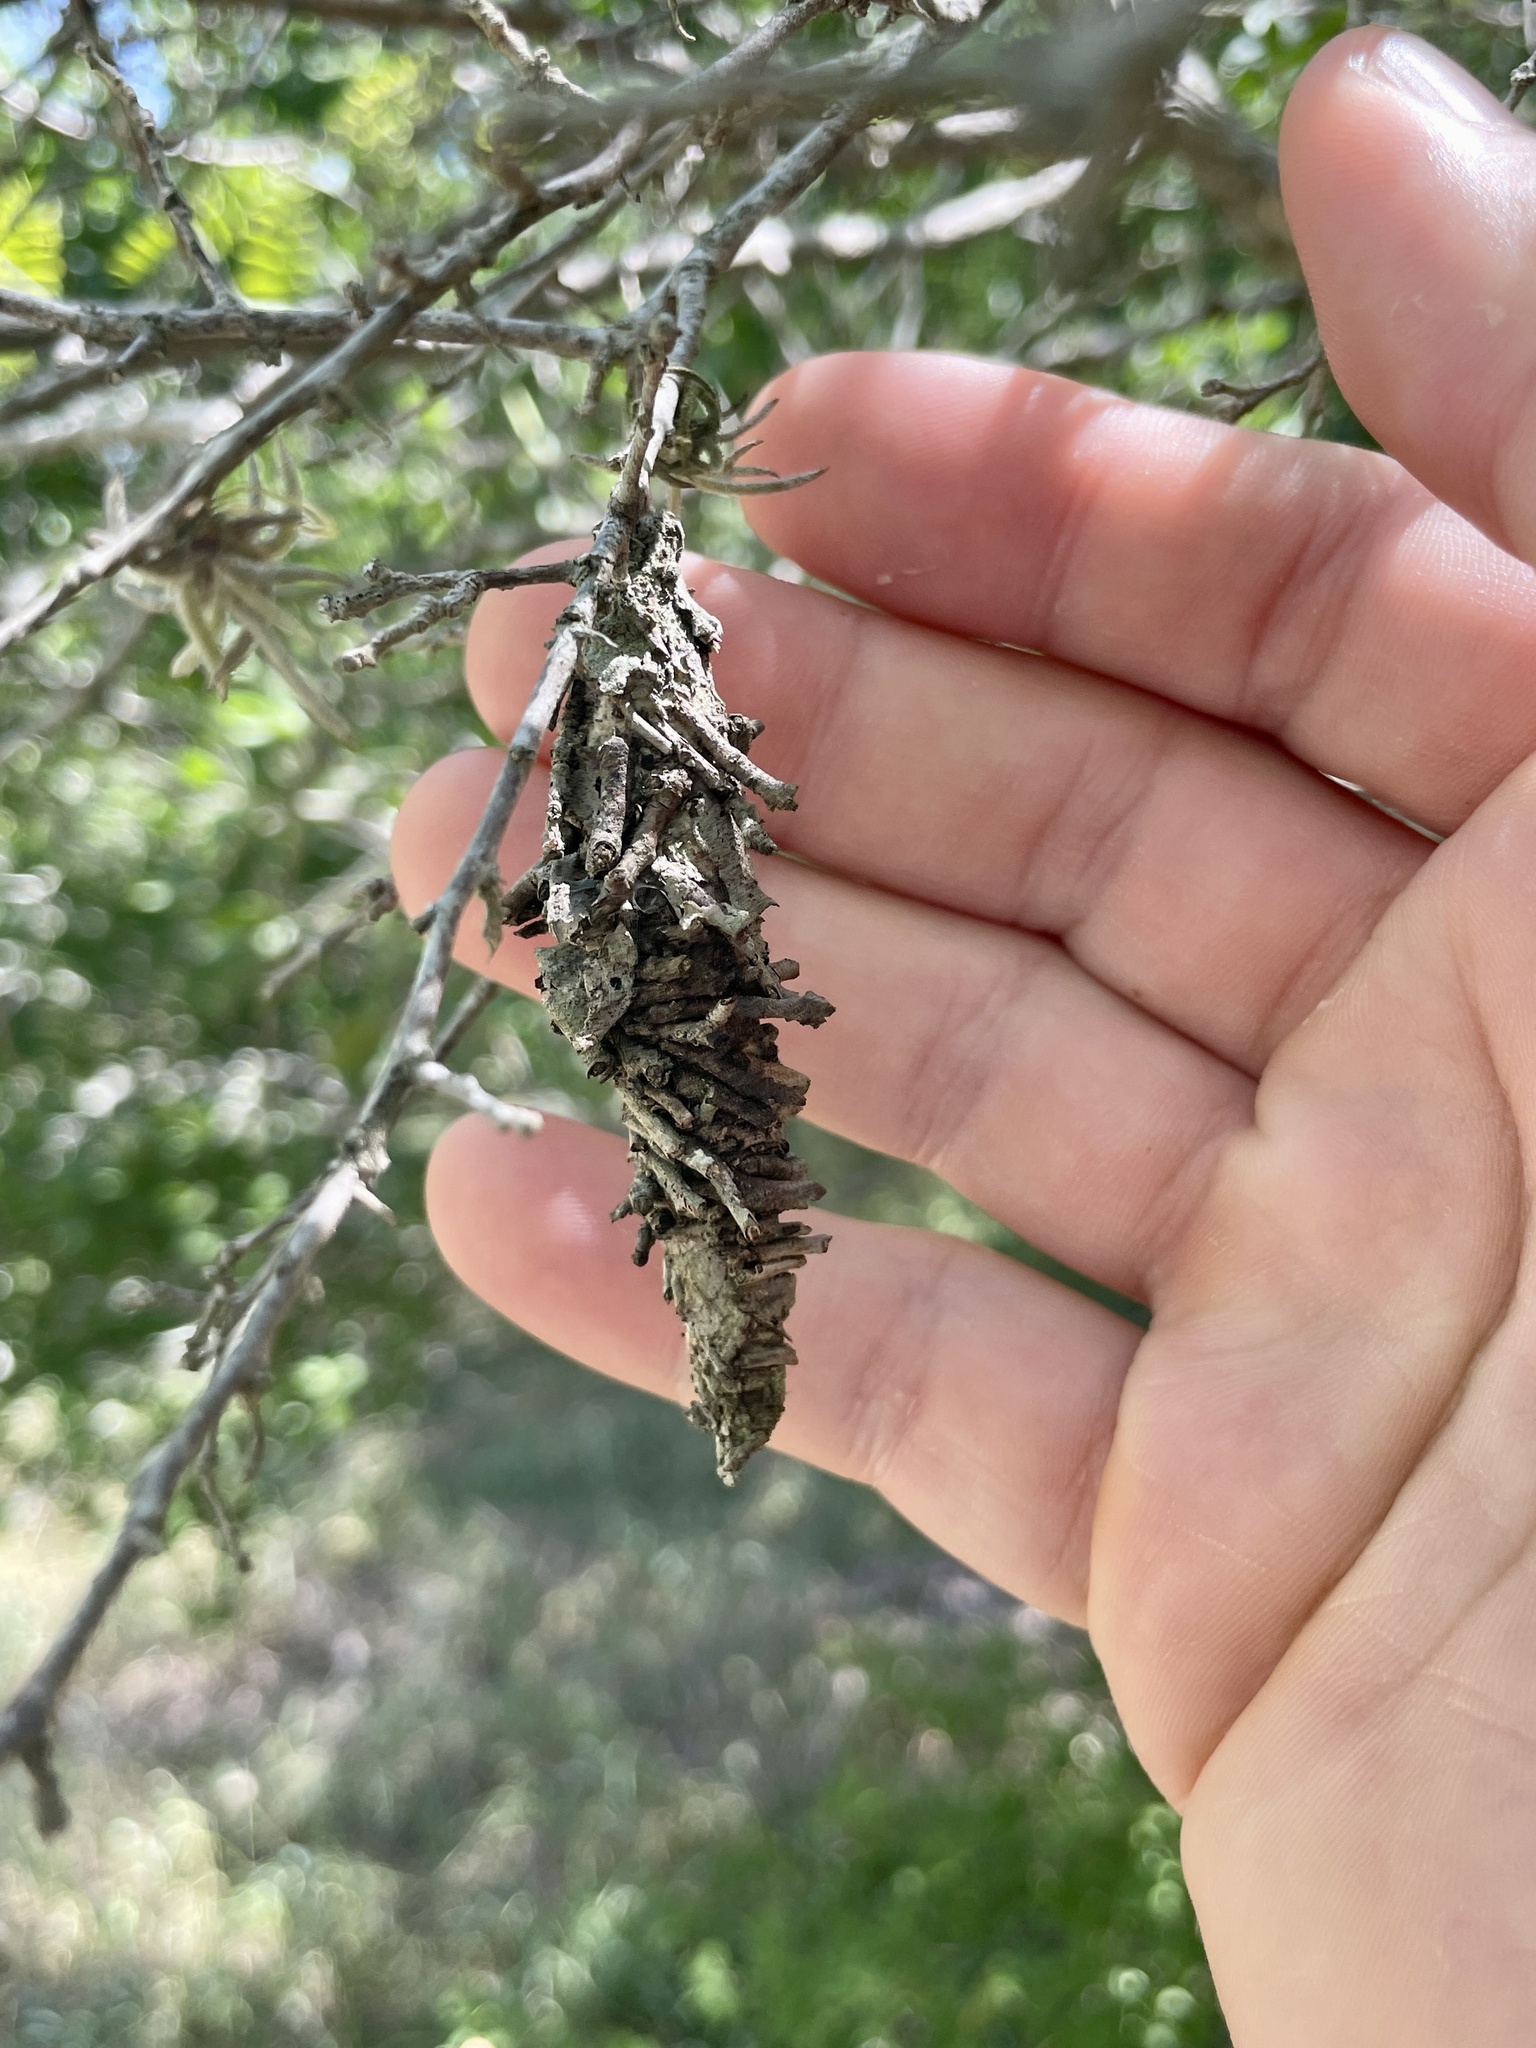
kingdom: Animalia
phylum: Arthropoda
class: Insecta
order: Lepidoptera
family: Psychidae
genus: Oiketicus
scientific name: Oiketicus
